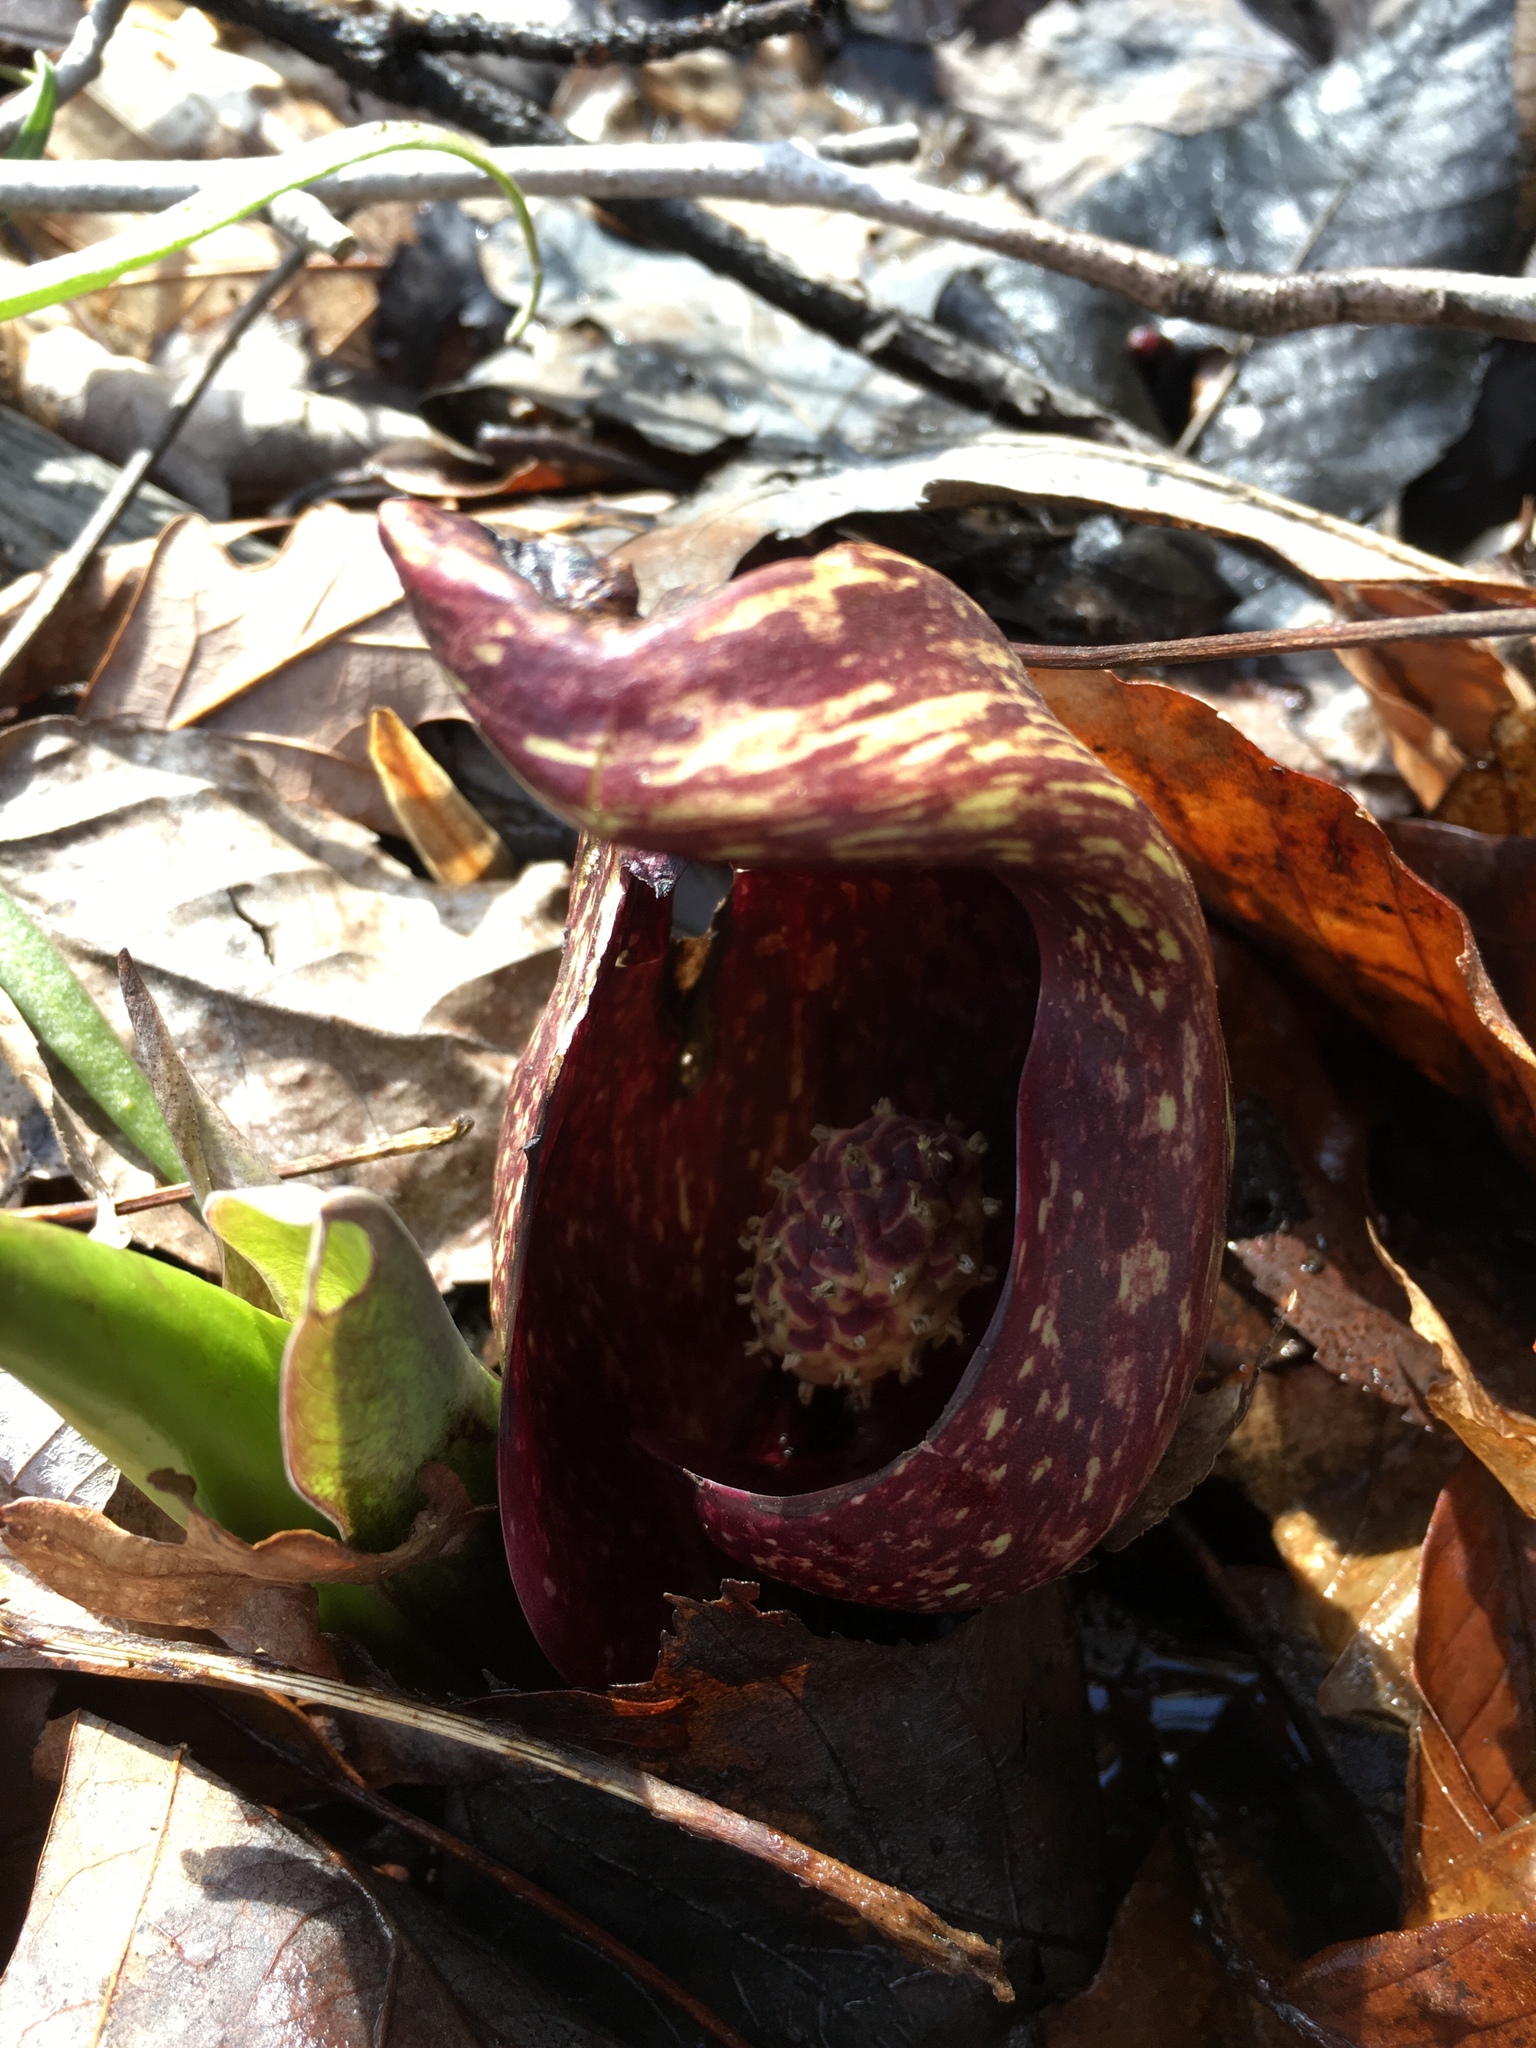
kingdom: Plantae
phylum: Tracheophyta
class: Liliopsida
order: Alismatales
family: Araceae
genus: Symplocarpus
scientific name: Symplocarpus foetidus
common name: Eastern skunk cabbage
